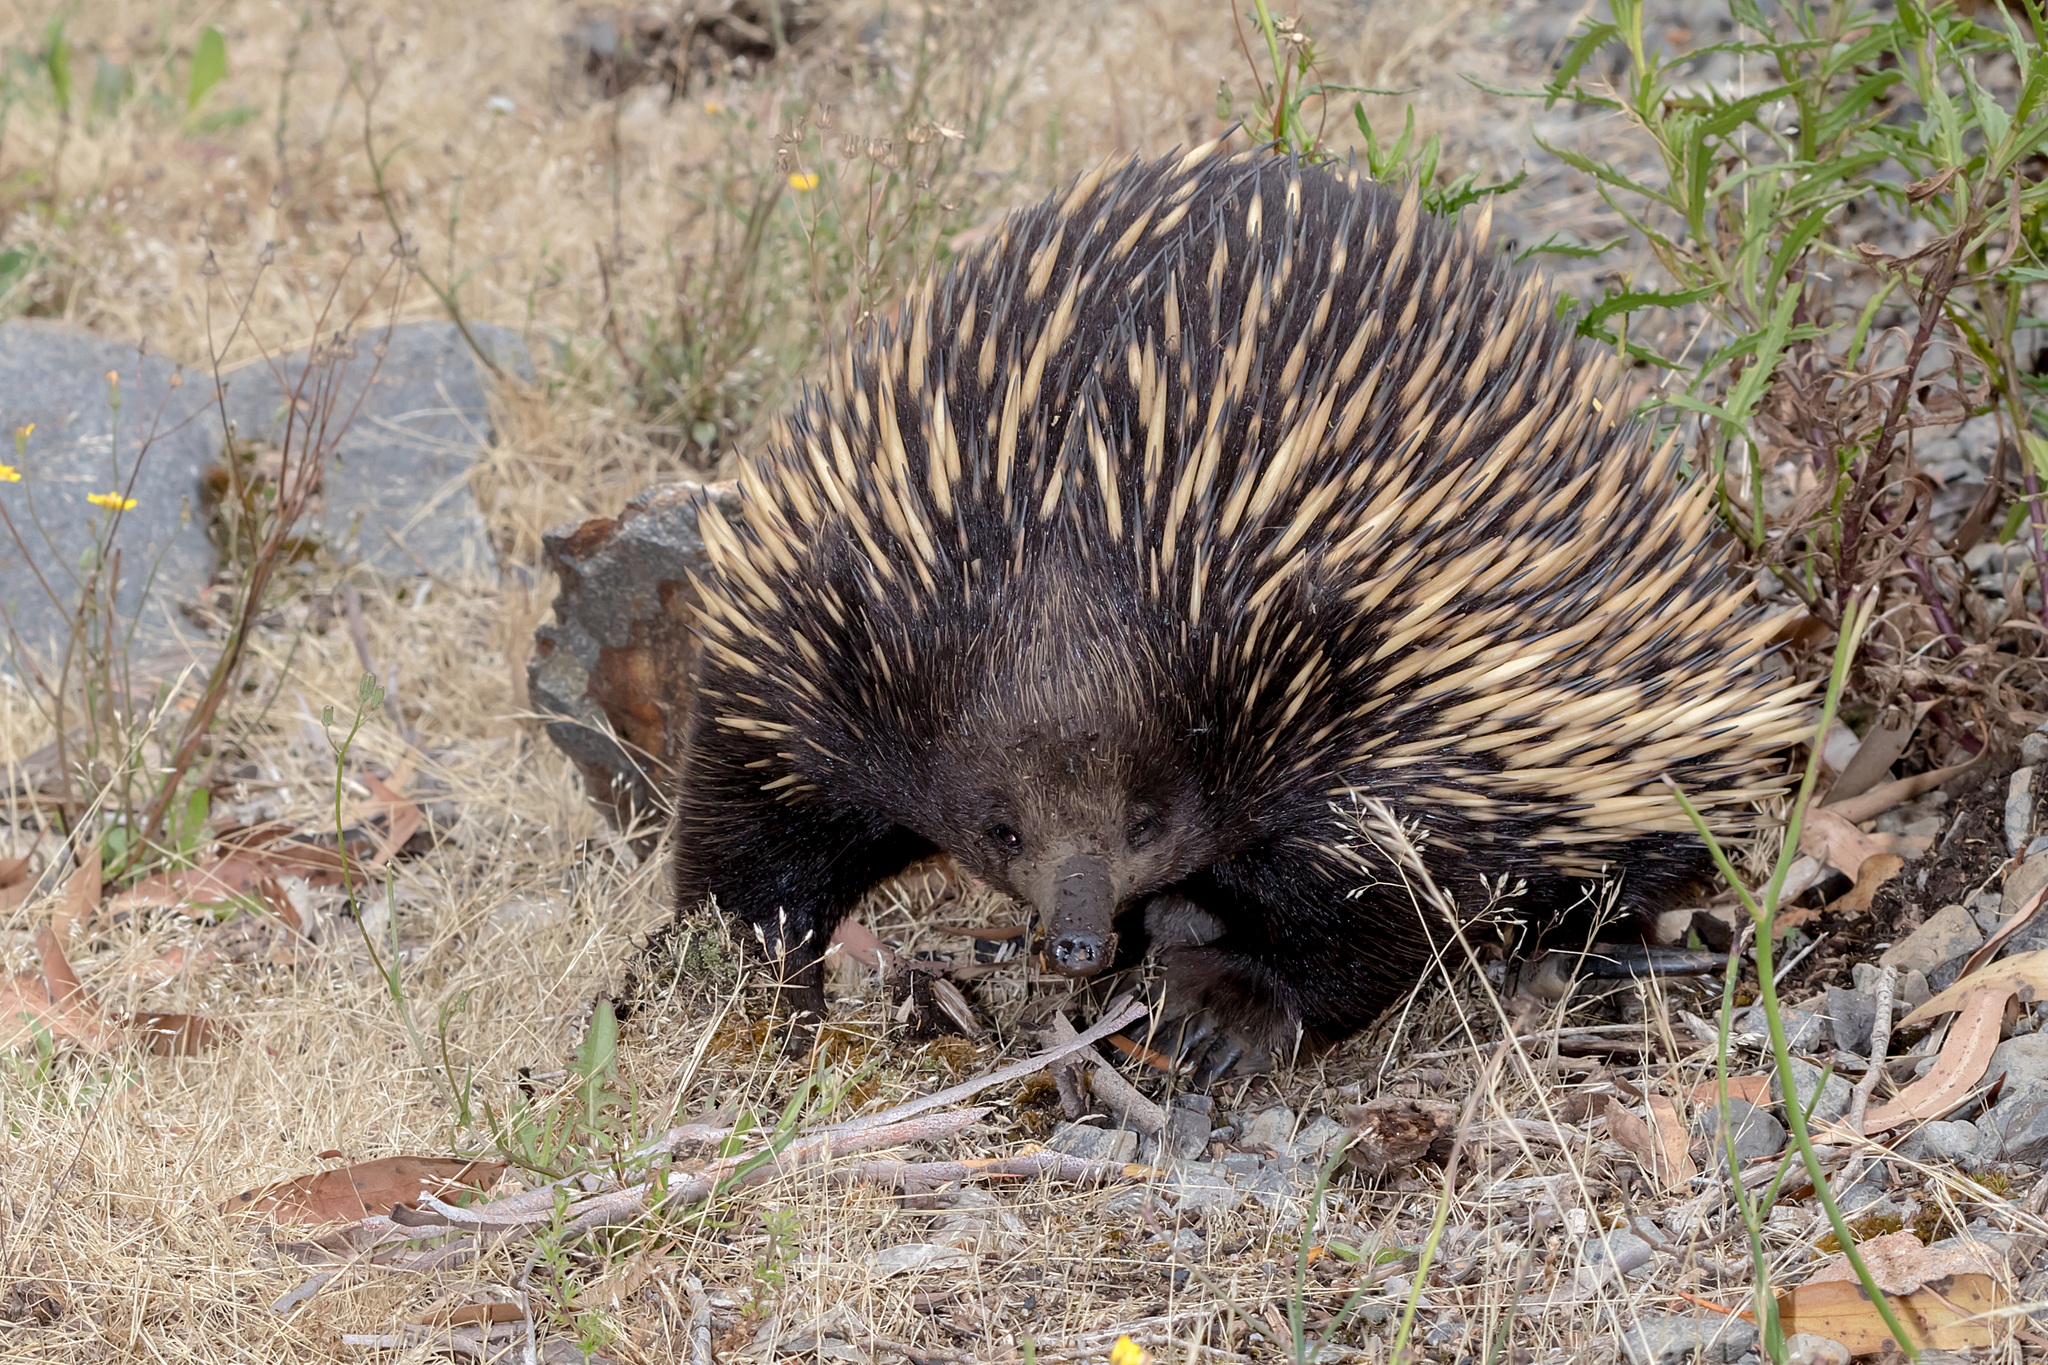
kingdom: Animalia
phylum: Chordata
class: Mammalia
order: Monotremata
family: Tachyglossidae
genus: Tachyglossus
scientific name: Tachyglossus aculeatus
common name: Short-beaked echidna
